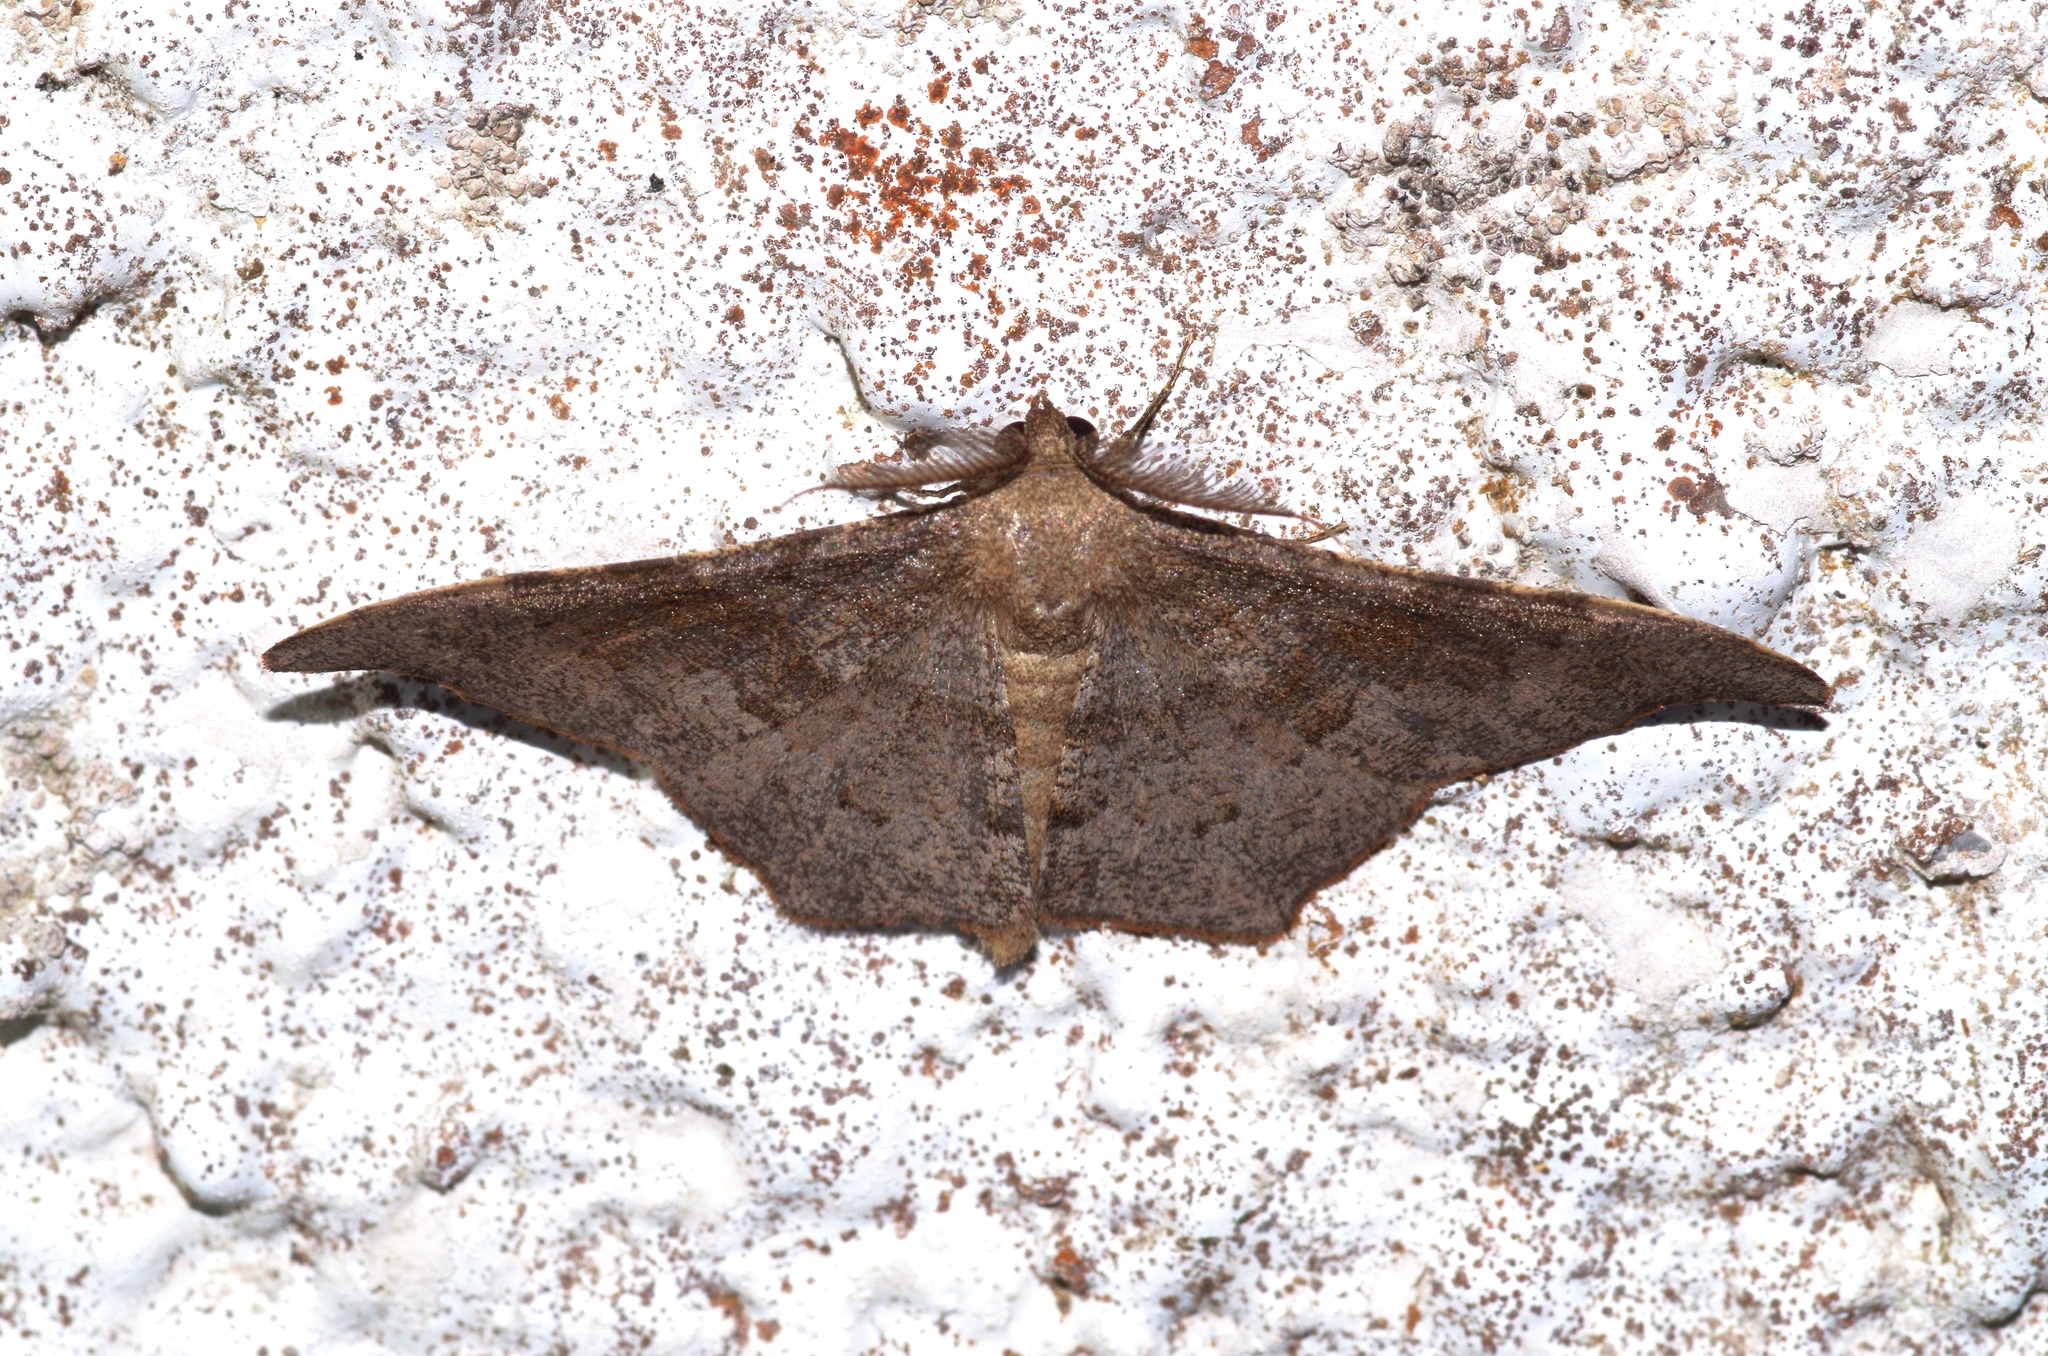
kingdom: Animalia
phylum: Arthropoda
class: Insecta
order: Lepidoptera
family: Geometridae
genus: Hyposidra
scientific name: Hyposidra talaca
